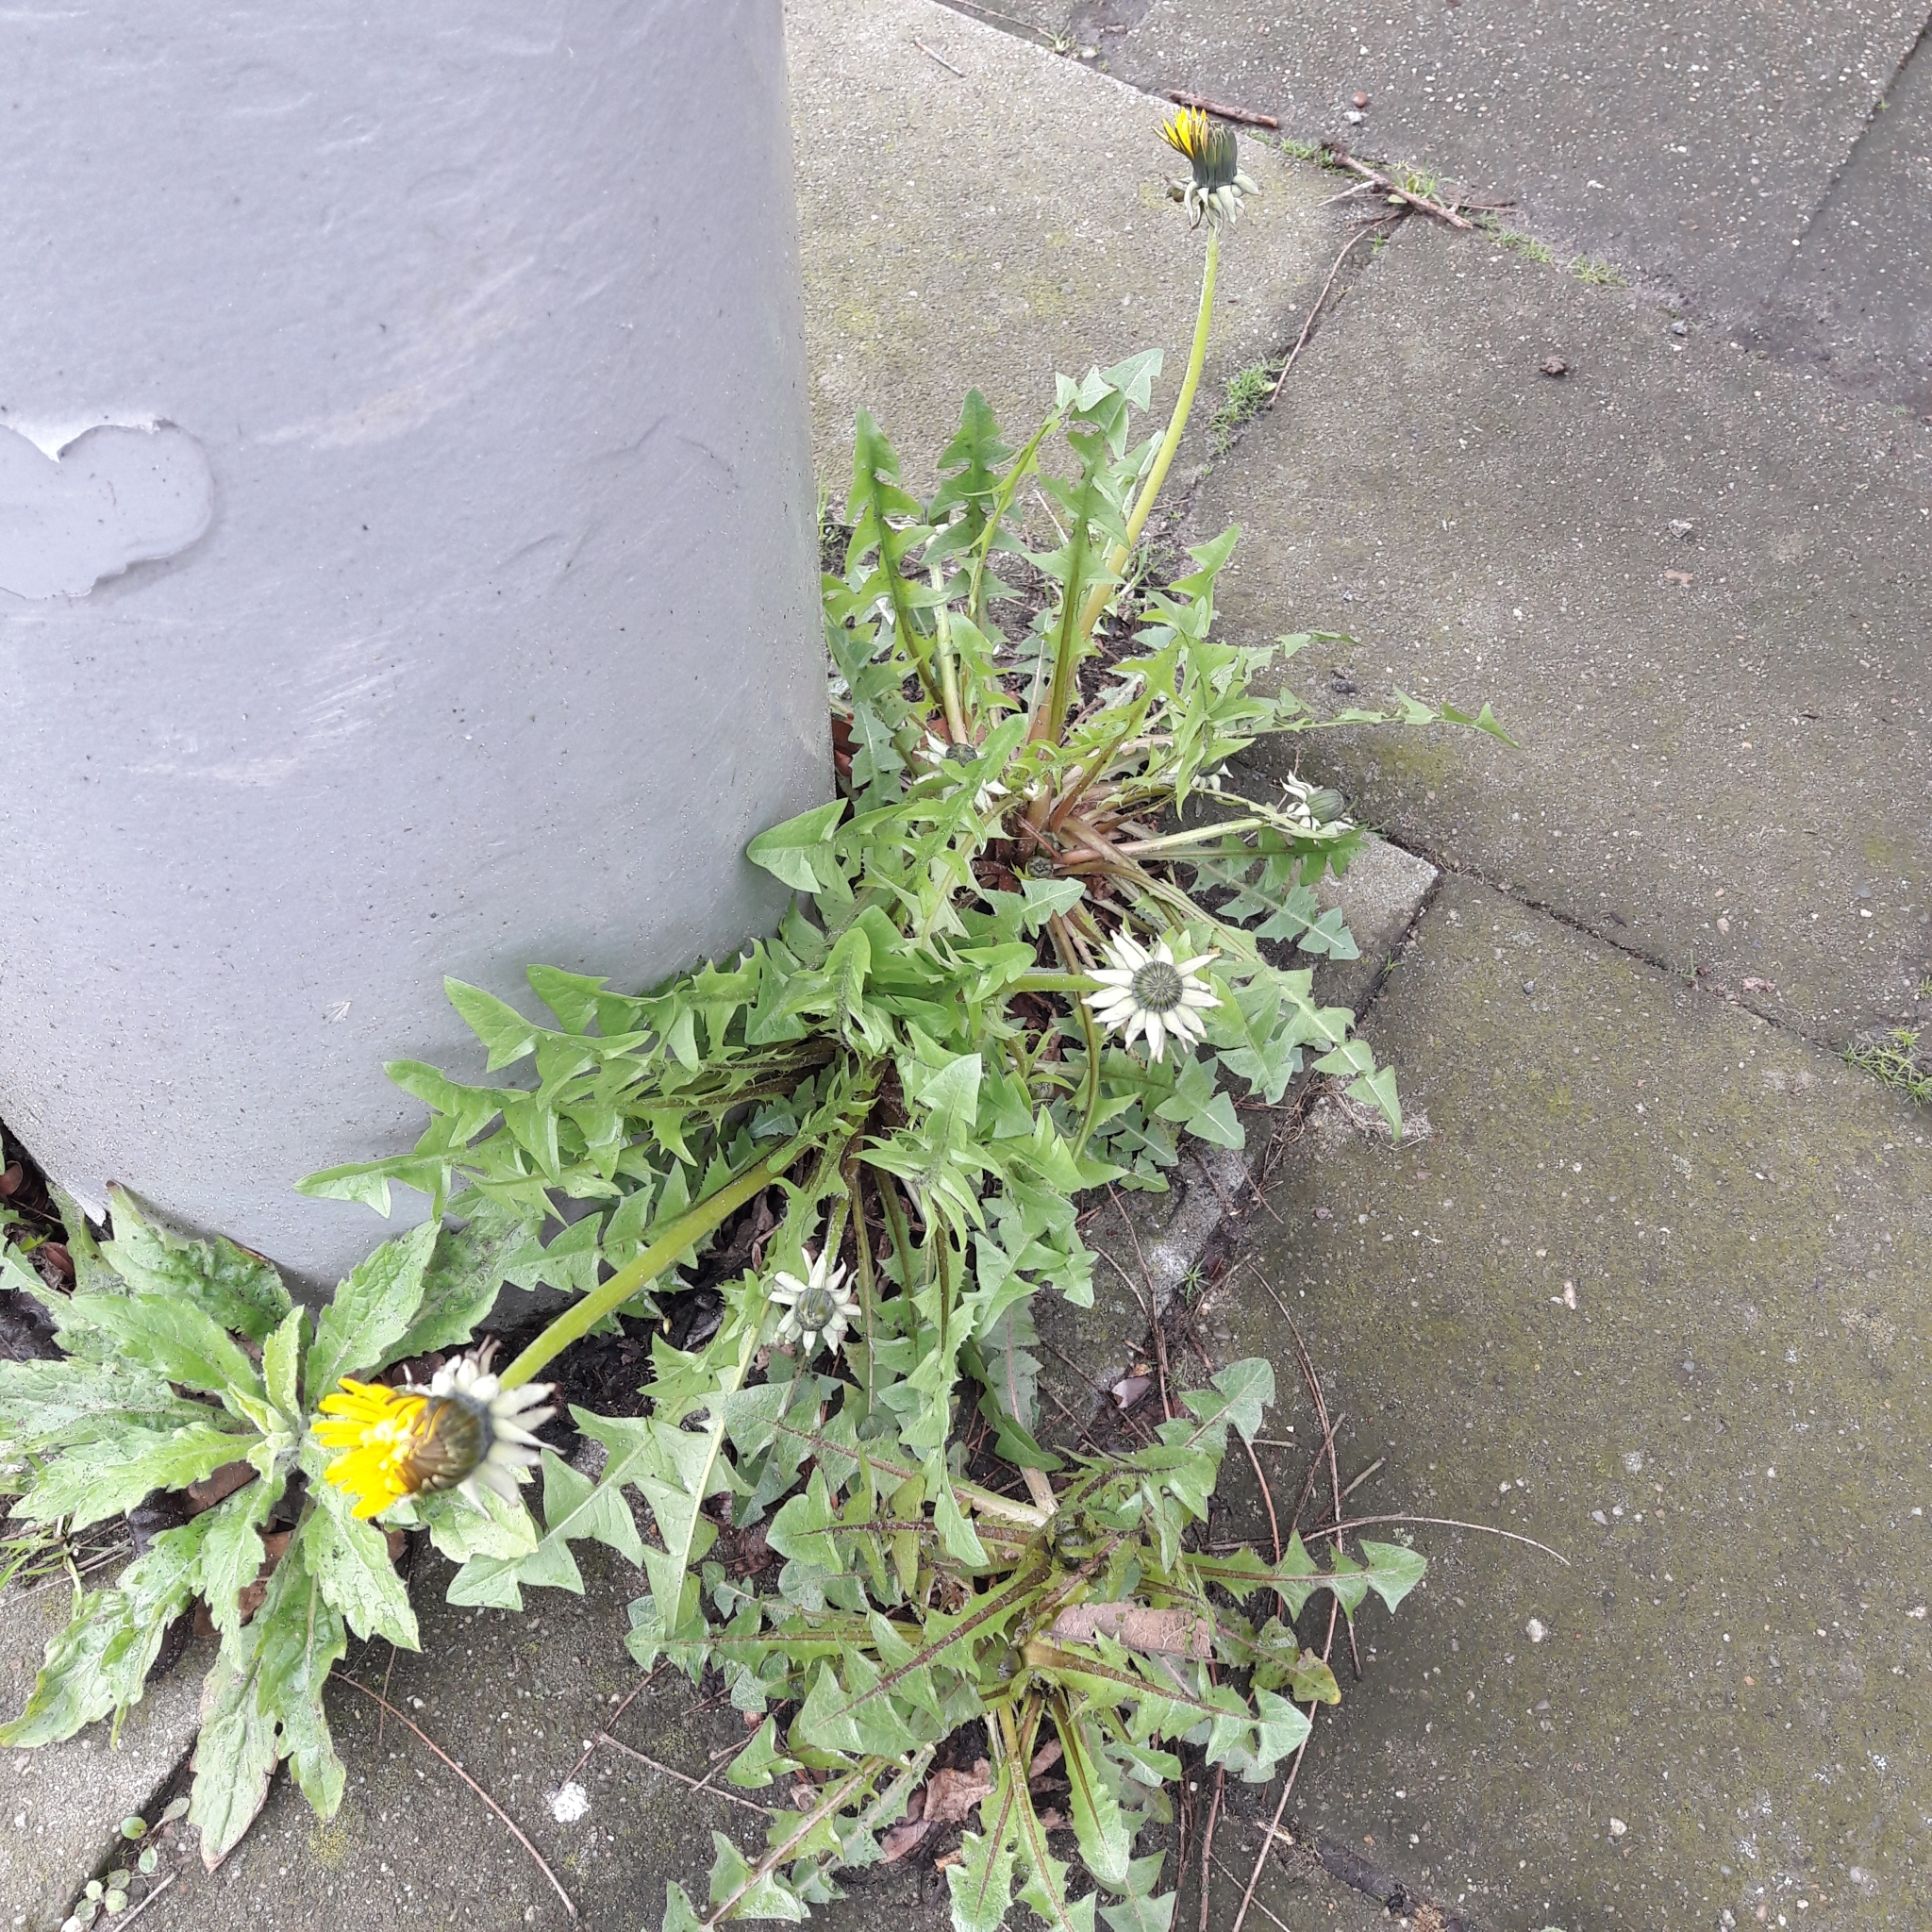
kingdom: Plantae
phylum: Tracheophyta
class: Magnoliopsida
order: Asterales
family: Asteraceae
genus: Taraxacum
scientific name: Taraxacum officinale
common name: Common dandelion
